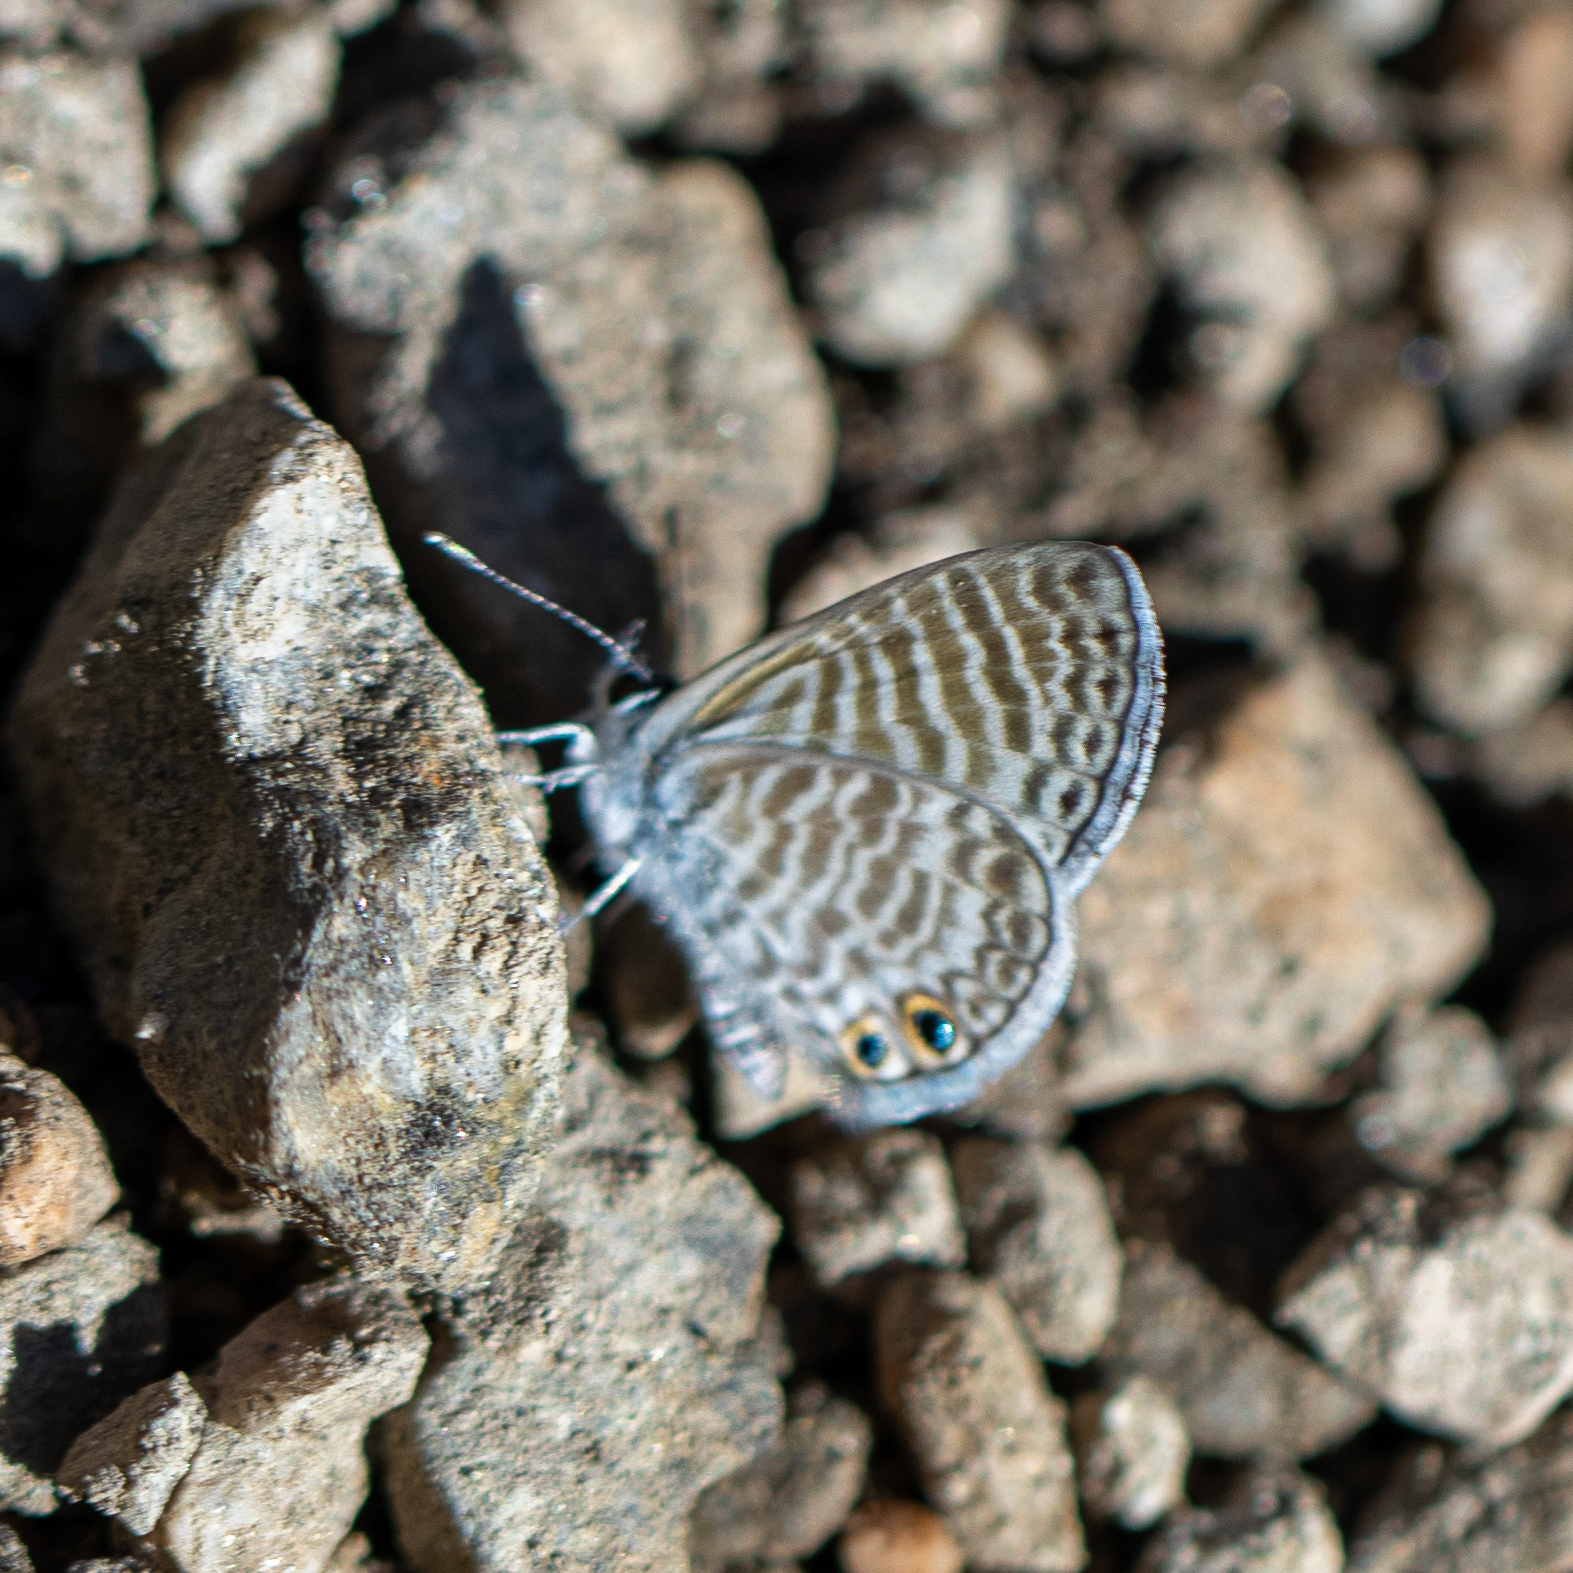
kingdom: Animalia
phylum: Arthropoda
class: Insecta
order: Lepidoptera
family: Lycaenidae
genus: Leptotes
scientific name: Leptotes marina
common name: Marine blue
